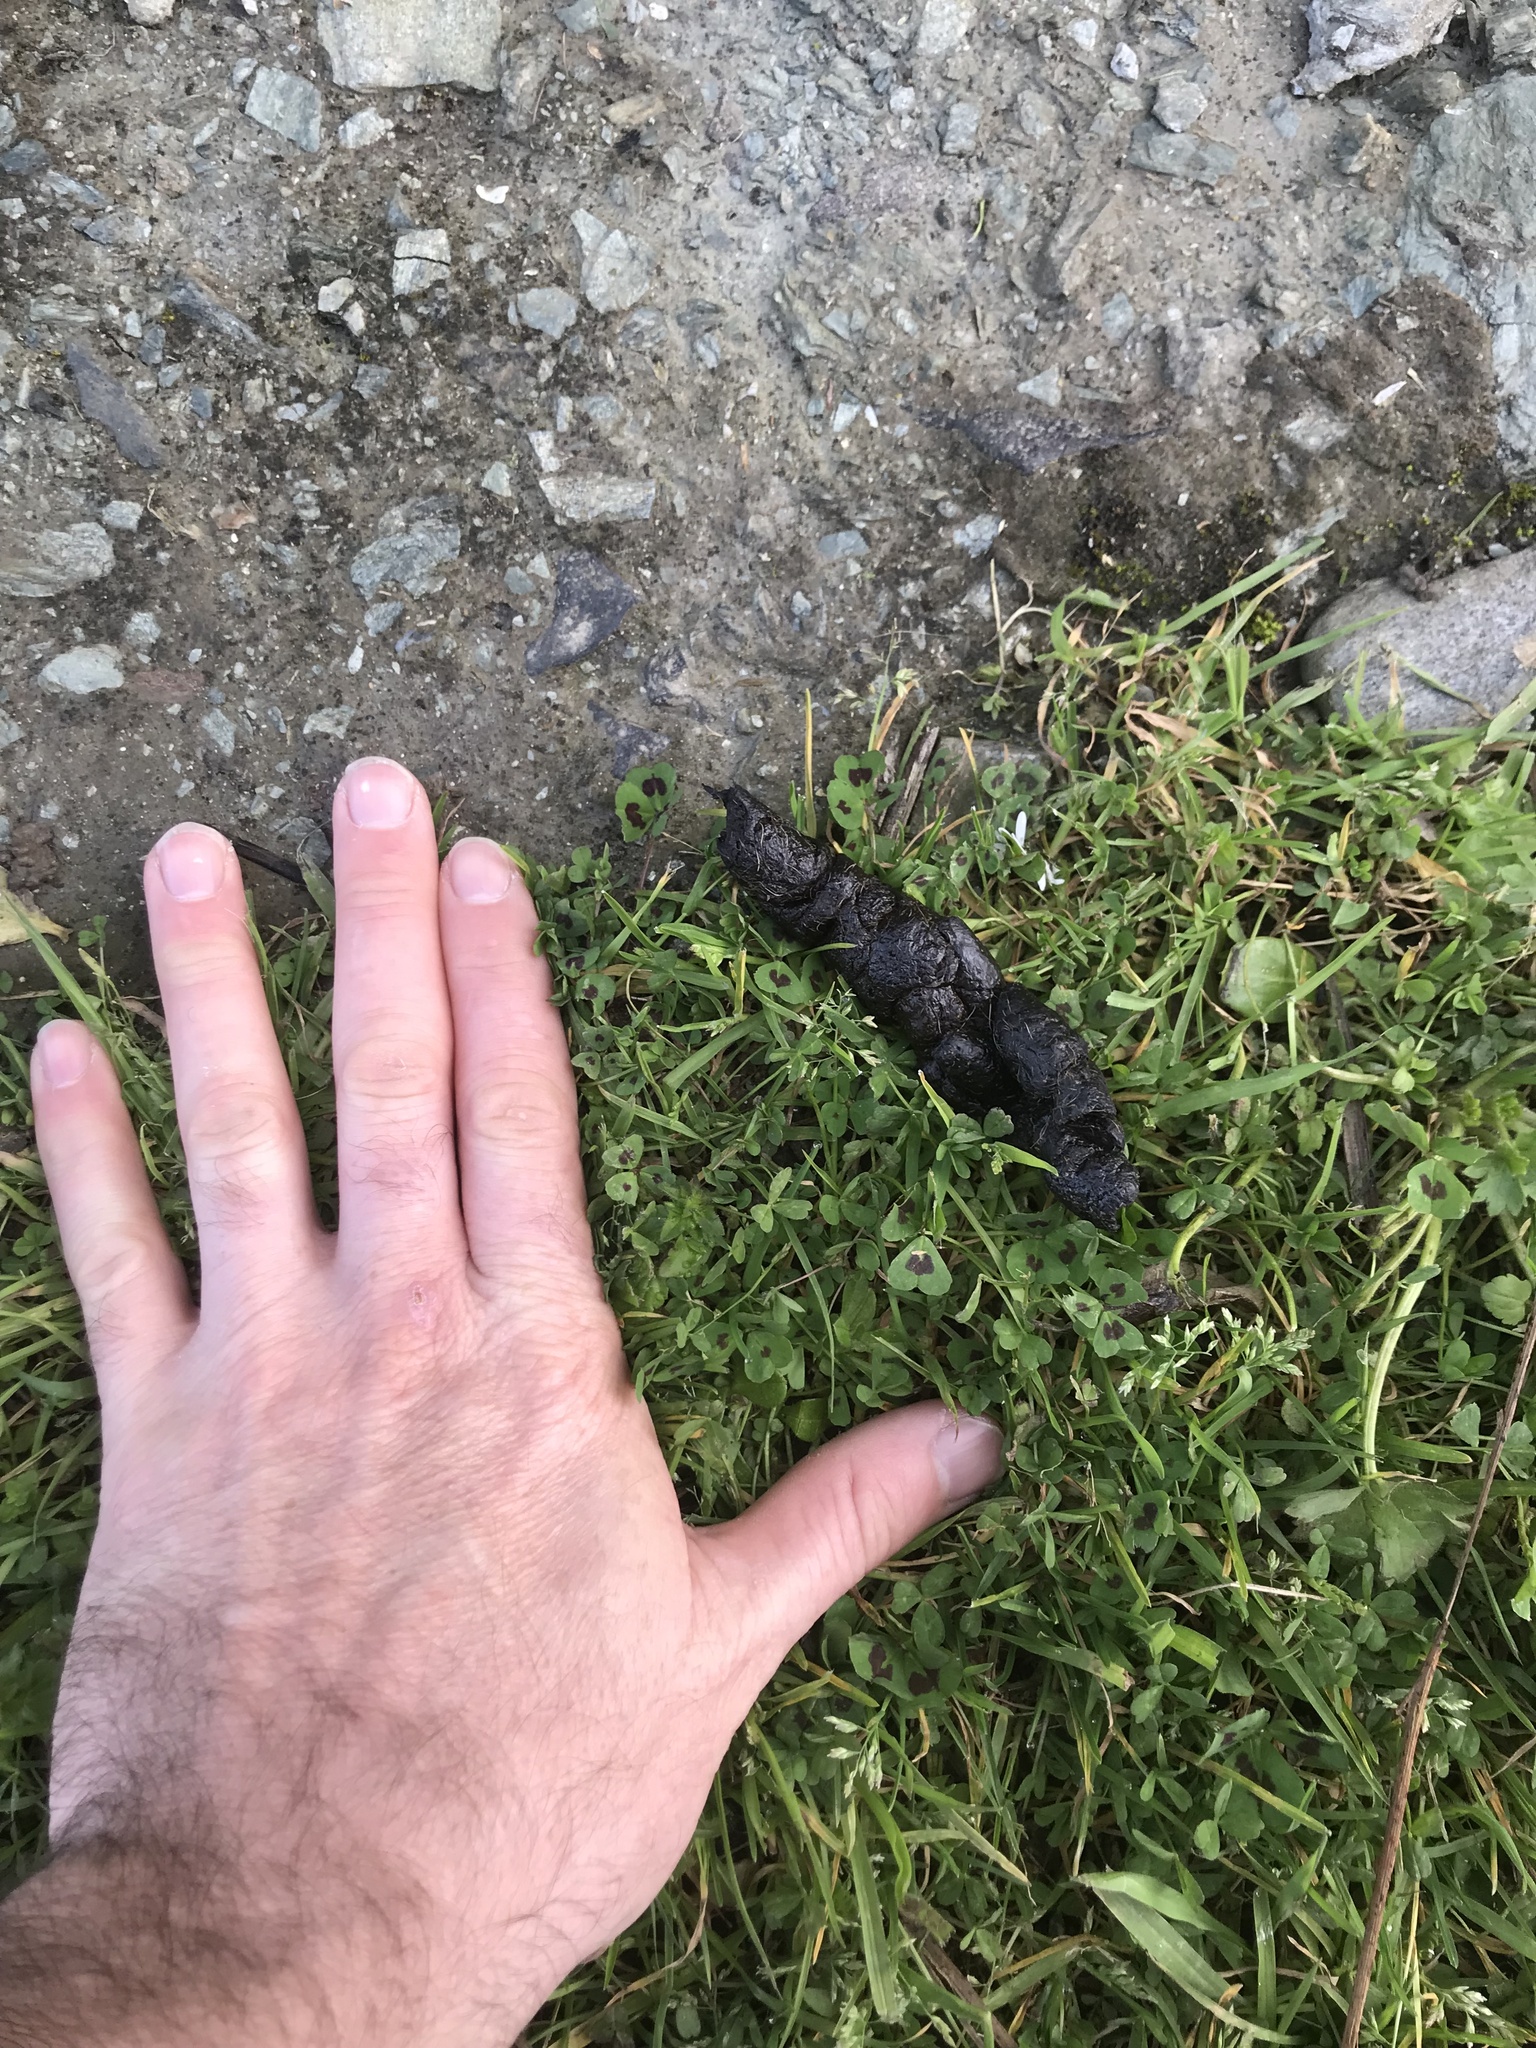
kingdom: Animalia
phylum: Chordata
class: Mammalia
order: Carnivora
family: Felidae
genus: Felis
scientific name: Felis catus
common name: Domestic cat
